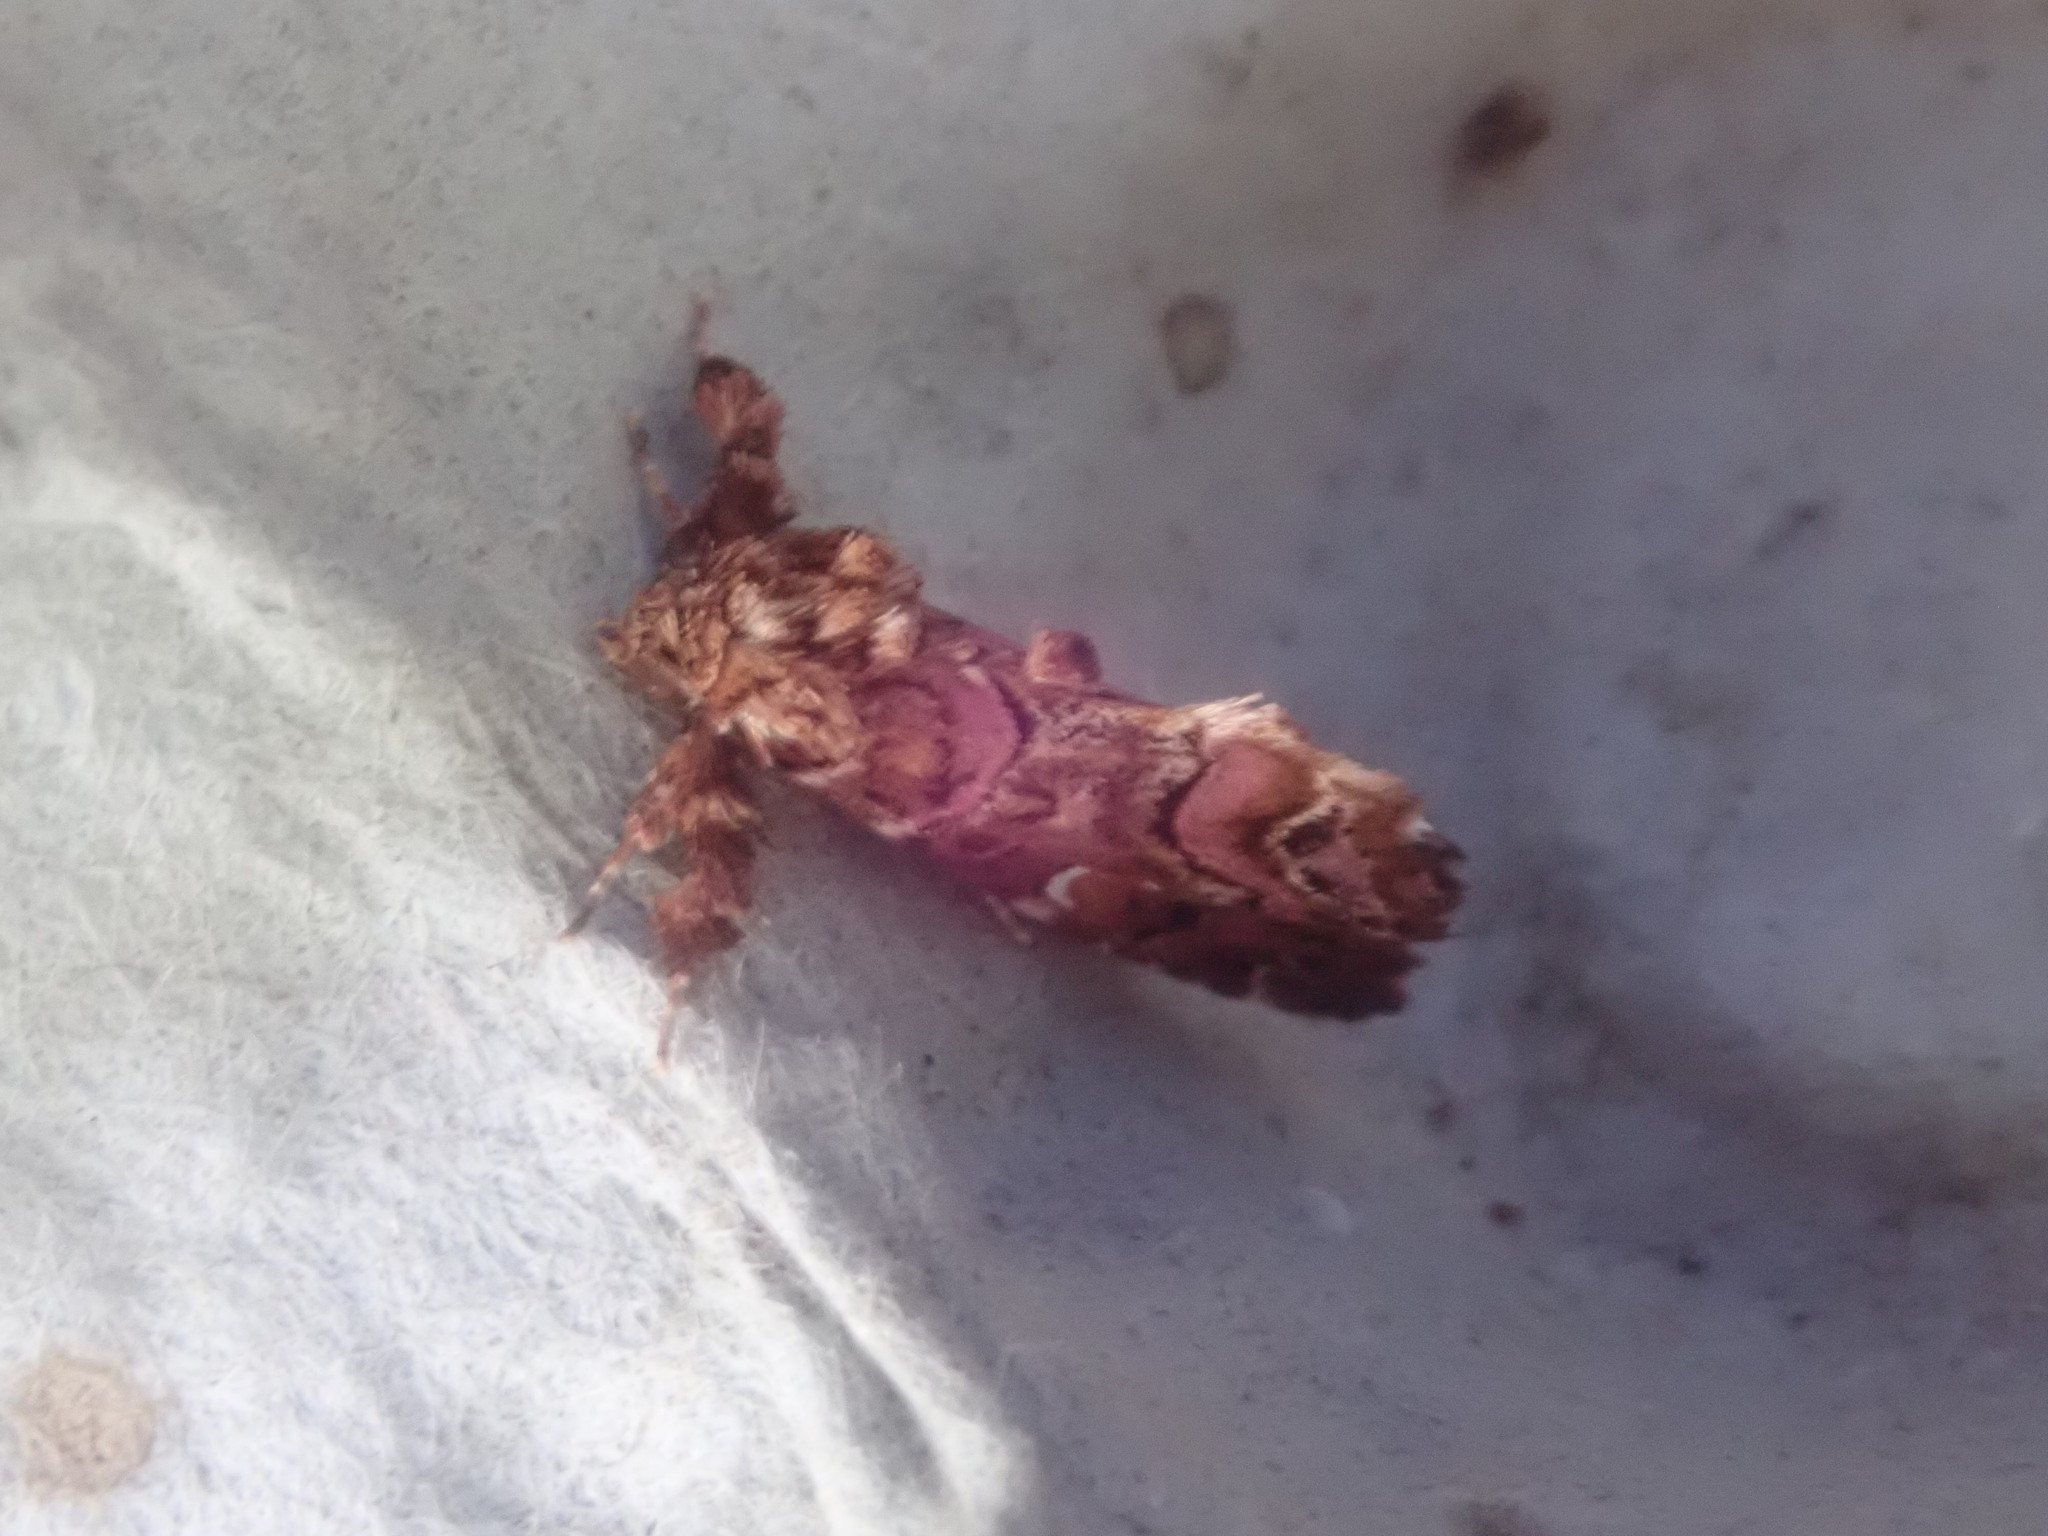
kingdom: Animalia
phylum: Arthropoda
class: Insecta
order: Lepidoptera
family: Noctuidae
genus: Callopistria
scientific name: Callopistria mollissima
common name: Pink-shaded fern moth
